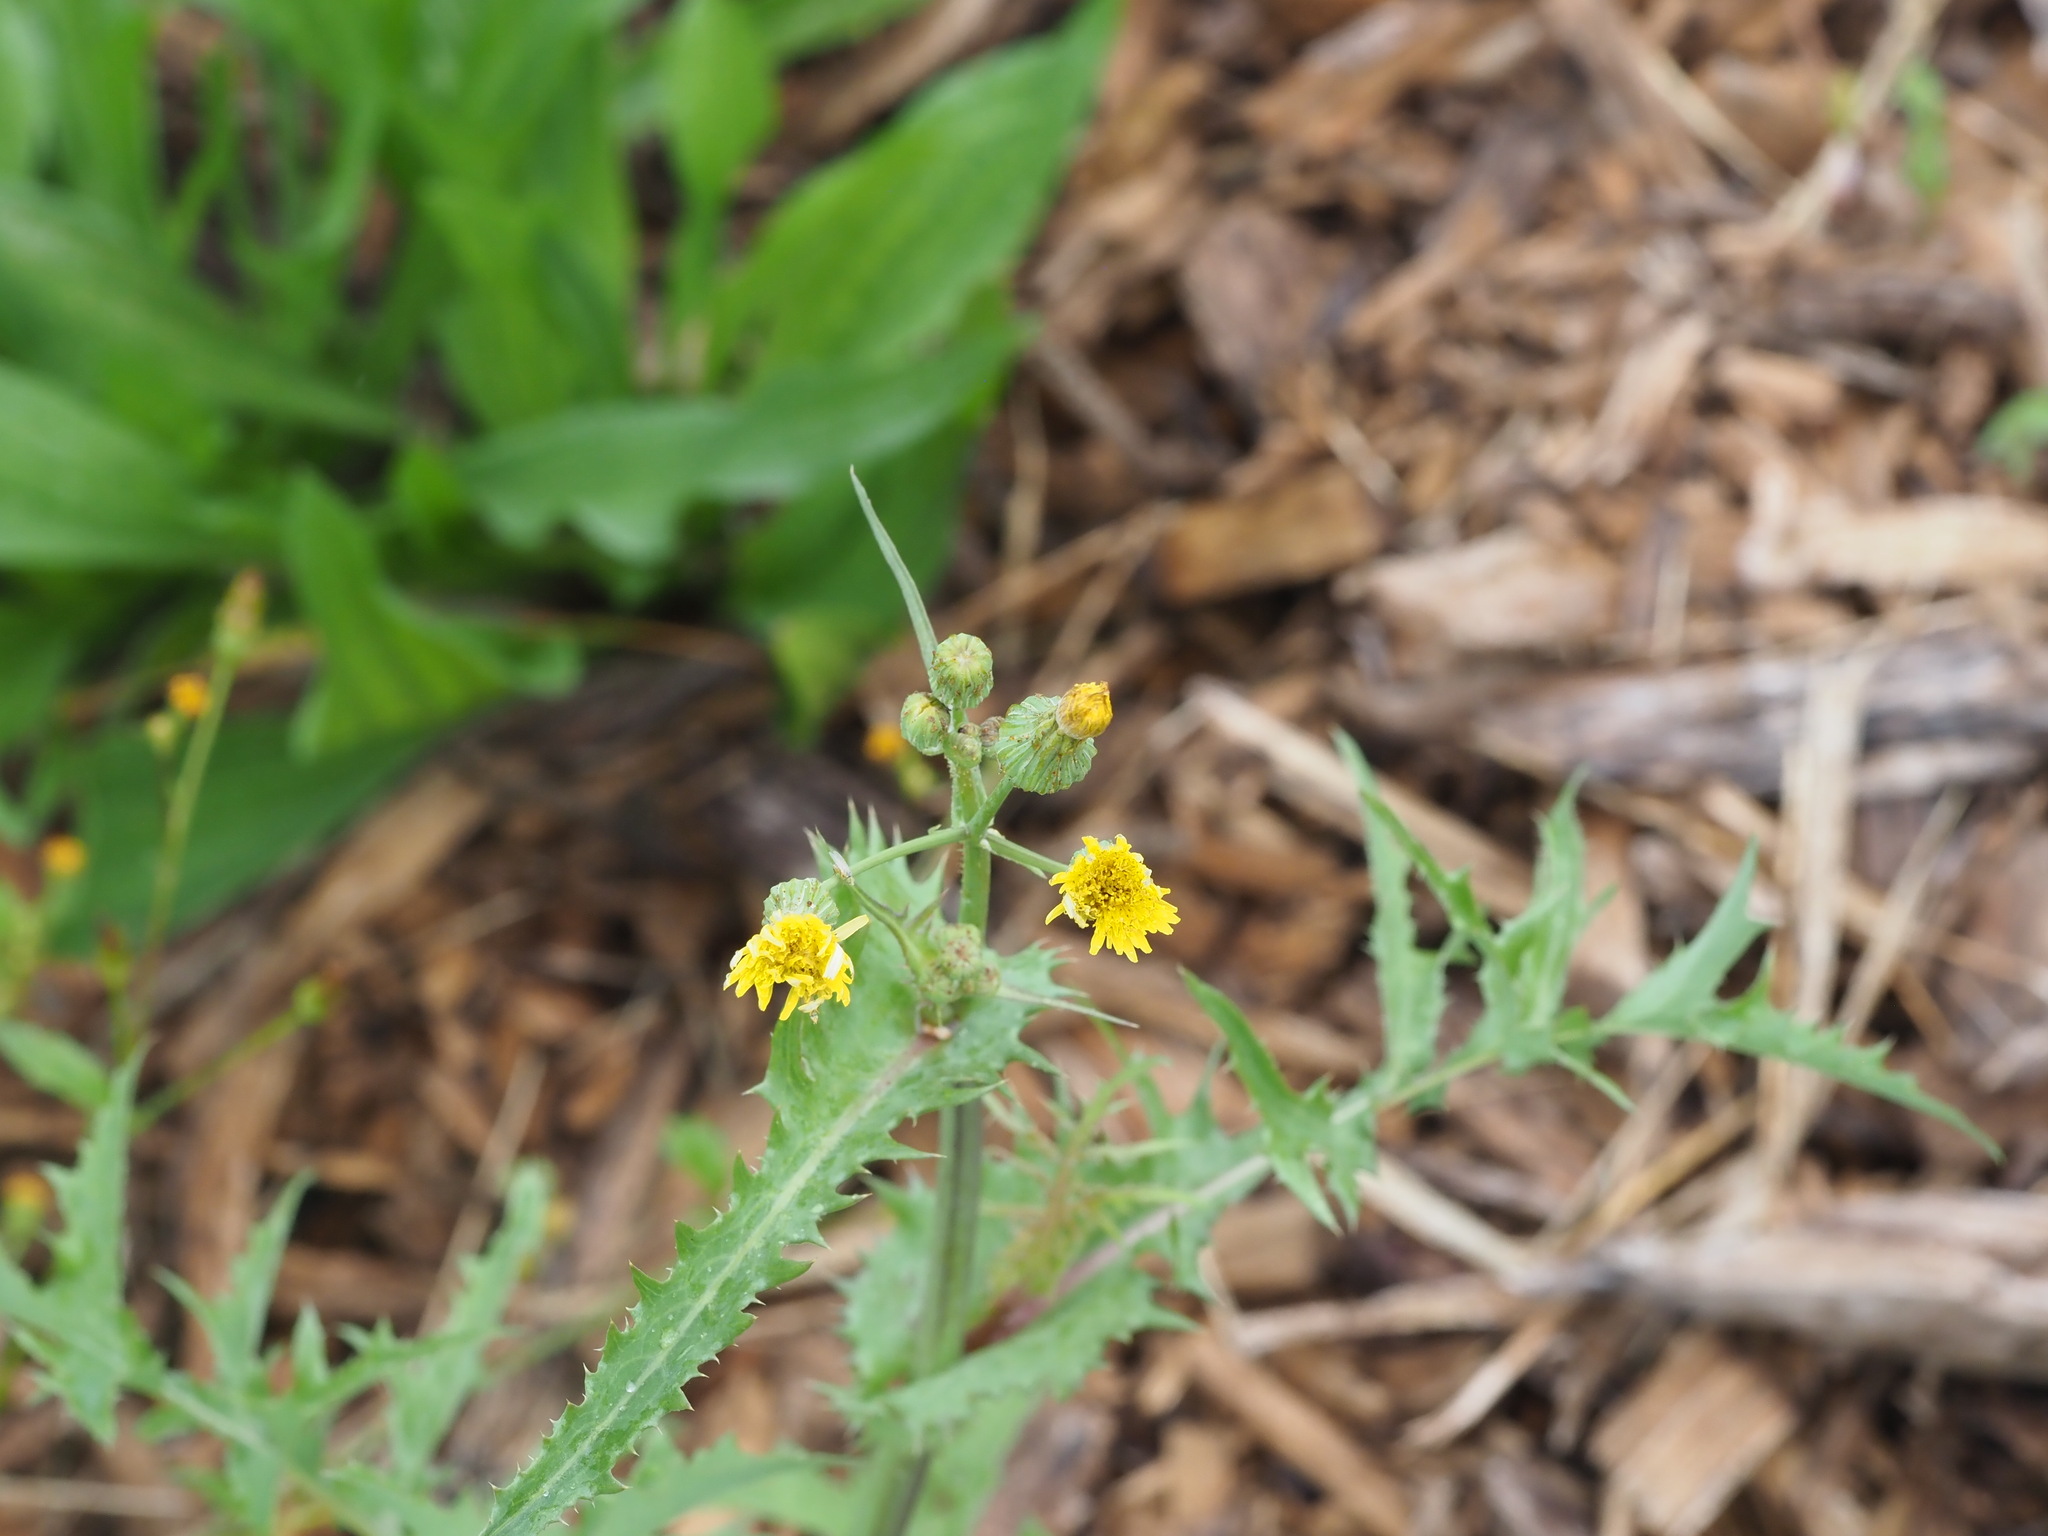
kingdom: Plantae
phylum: Tracheophyta
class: Magnoliopsida
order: Asterales
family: Asteraceae
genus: Sonchus
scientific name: Sonchus oleraceus
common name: Common sowthistle
